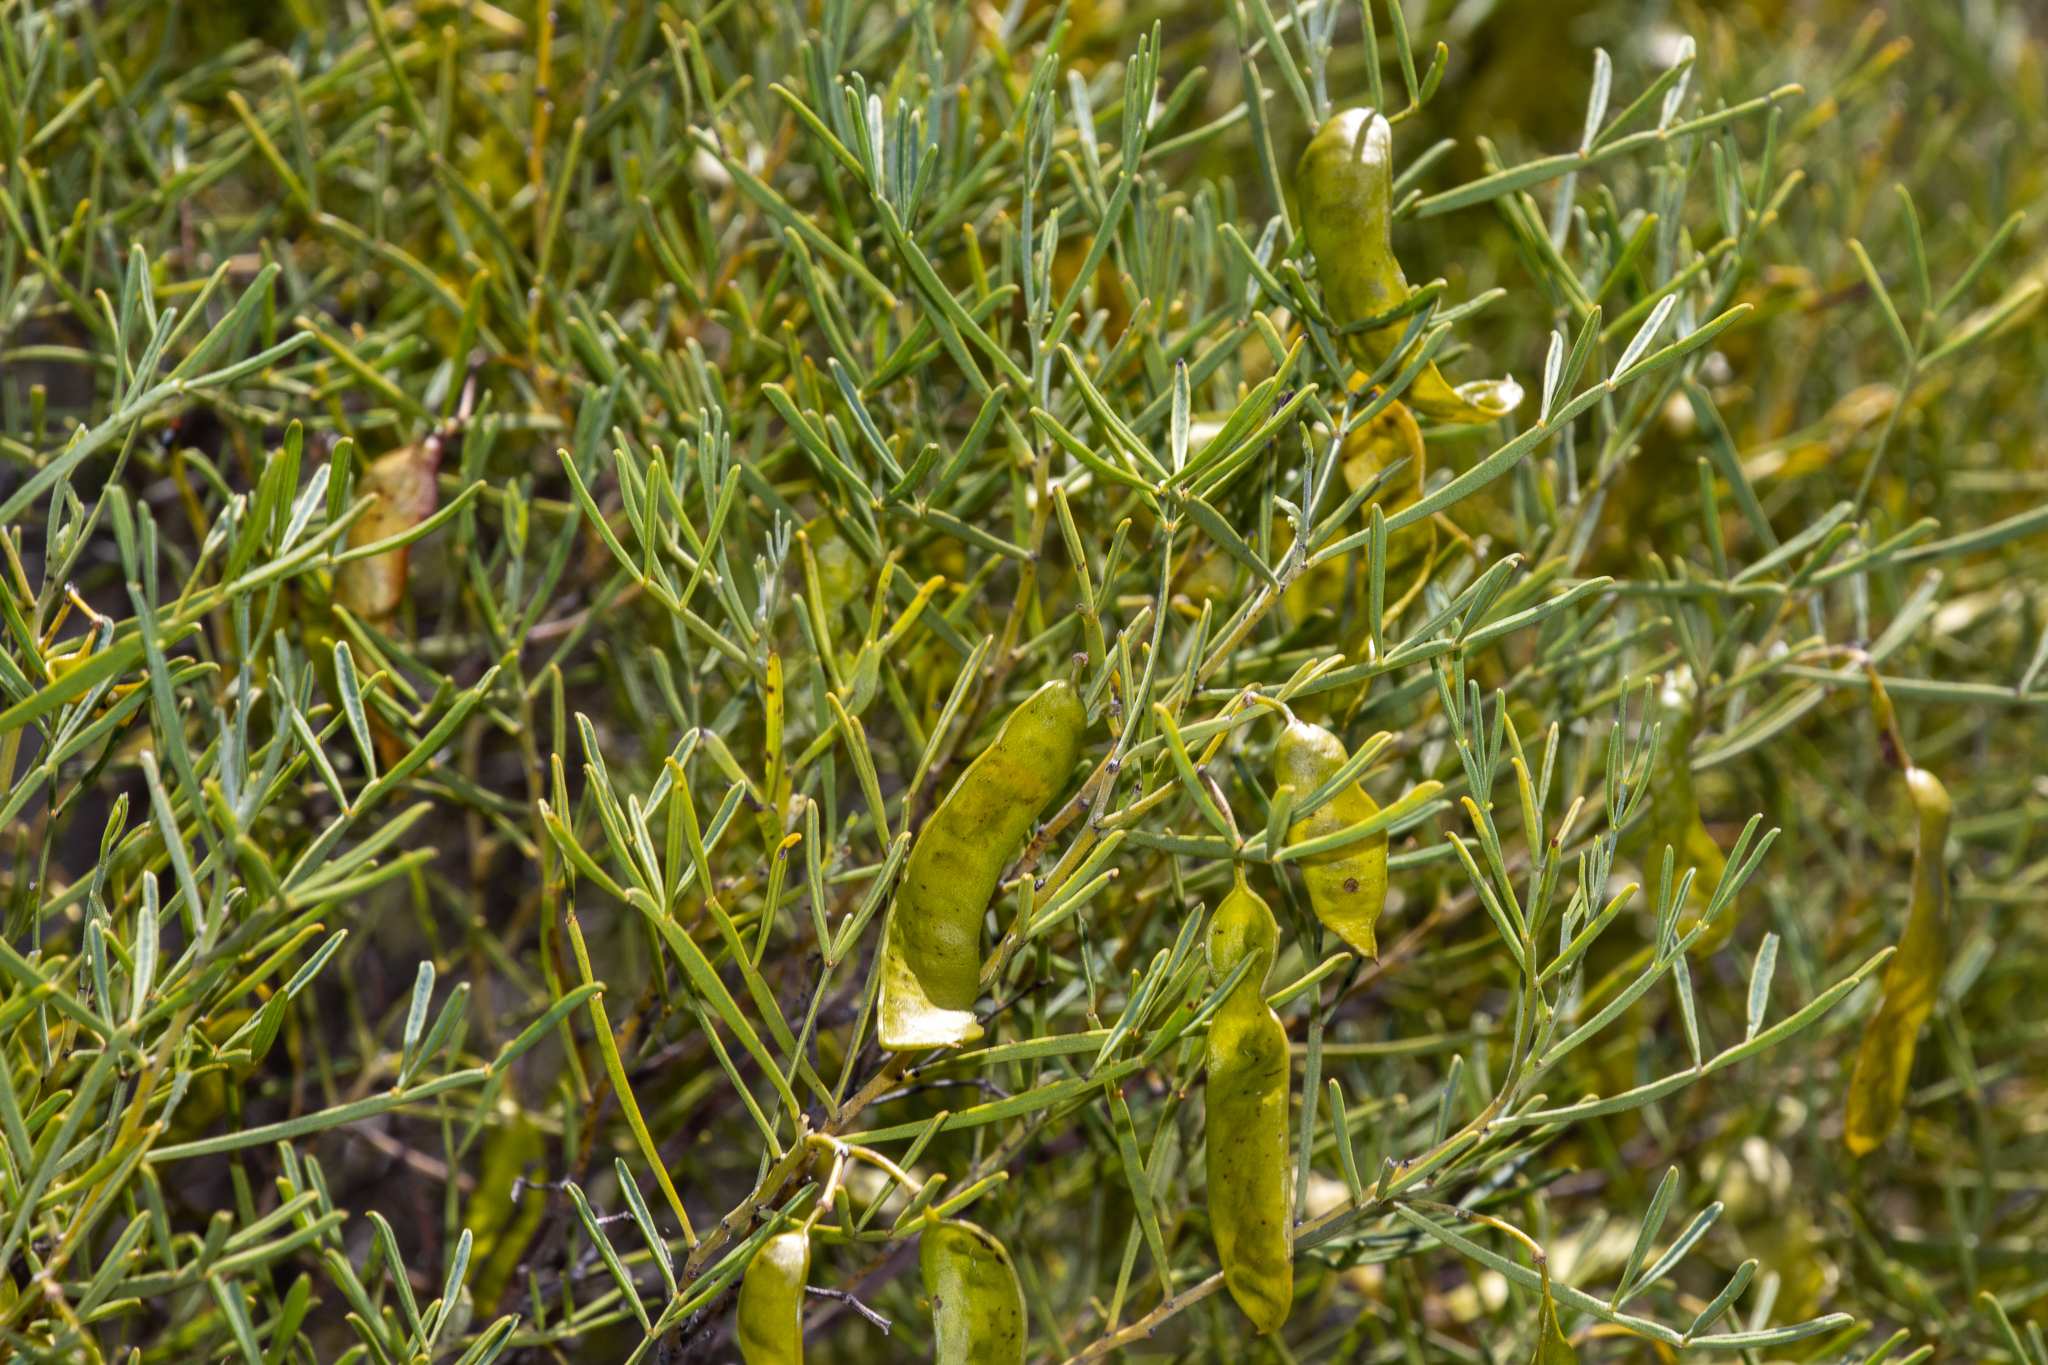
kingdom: Plantae
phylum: Tracheophyta
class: Magnoliopsida
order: Fabales
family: Fabaceae
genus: Senna
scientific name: Senna artemisioides
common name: Burnt-leaved acacia
